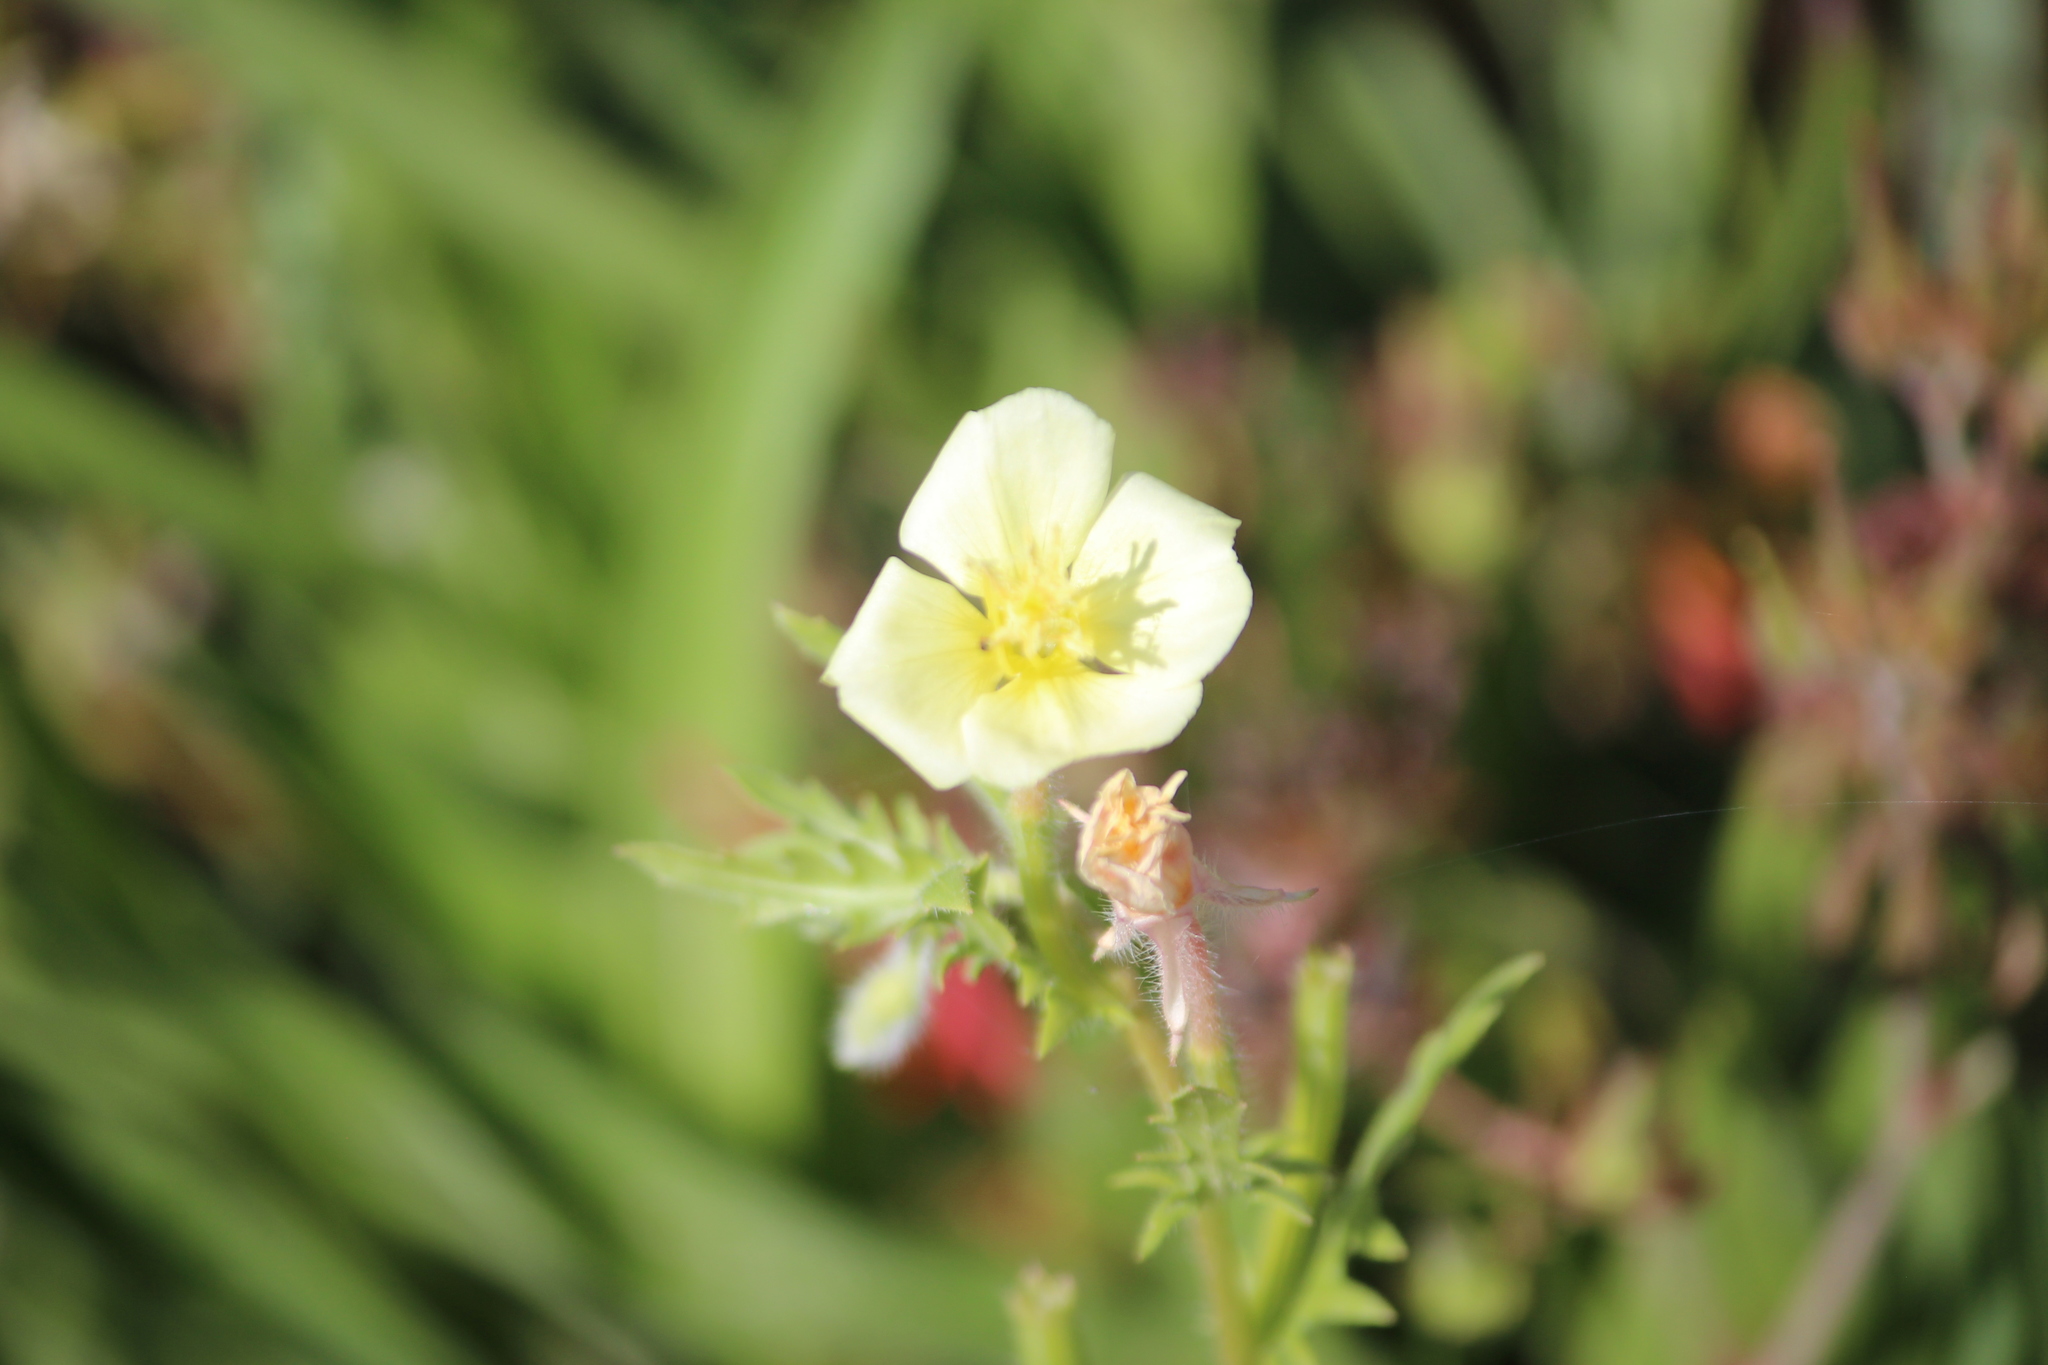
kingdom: Plantae
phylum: Tracheophyta
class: Magnoliopsida
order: Myrtales
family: Onagraceae
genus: Oenothera
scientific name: Oenothera laciniata
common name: Cut-leaved evening-primrose
